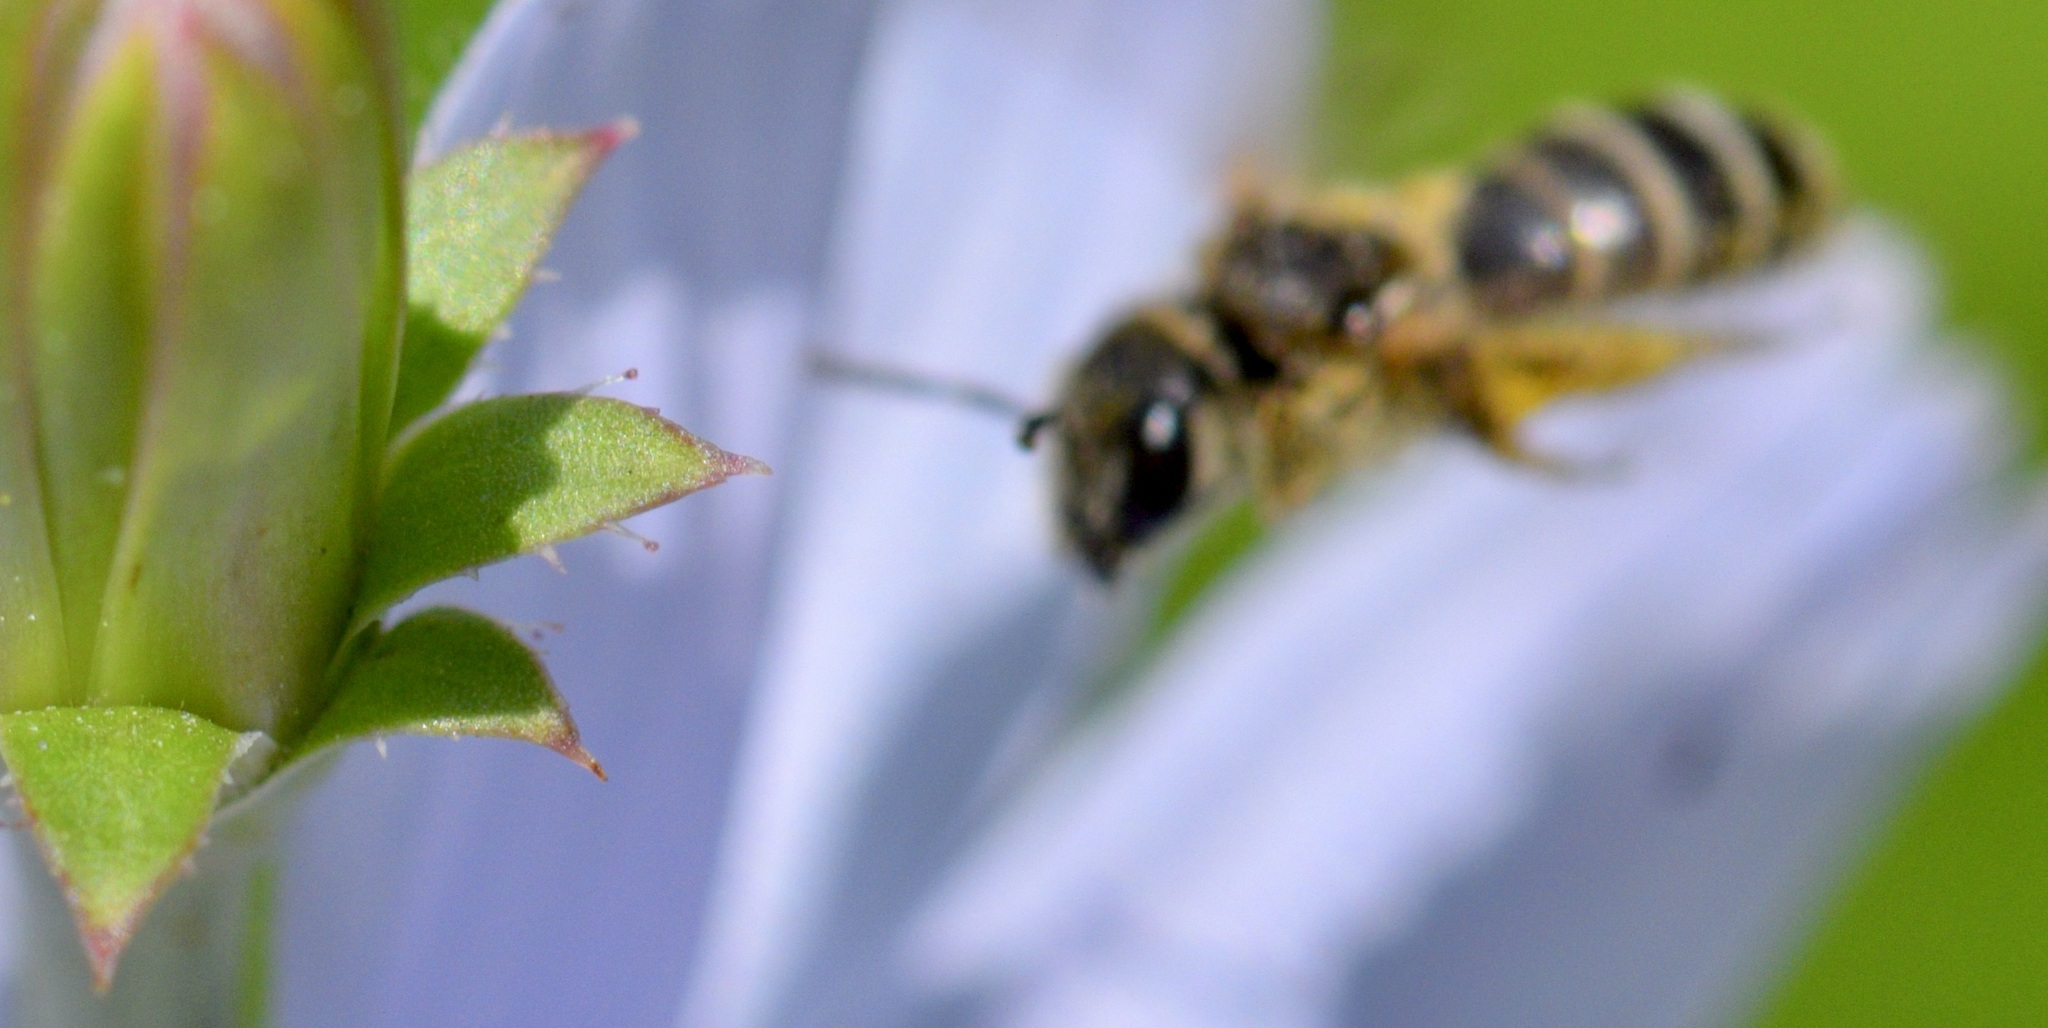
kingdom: Animalia
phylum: Arthropoda
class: Insecta
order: Hymenoptera
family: Halictidae
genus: Halictus
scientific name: Halictus ligatus
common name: Ligated furrow bee
